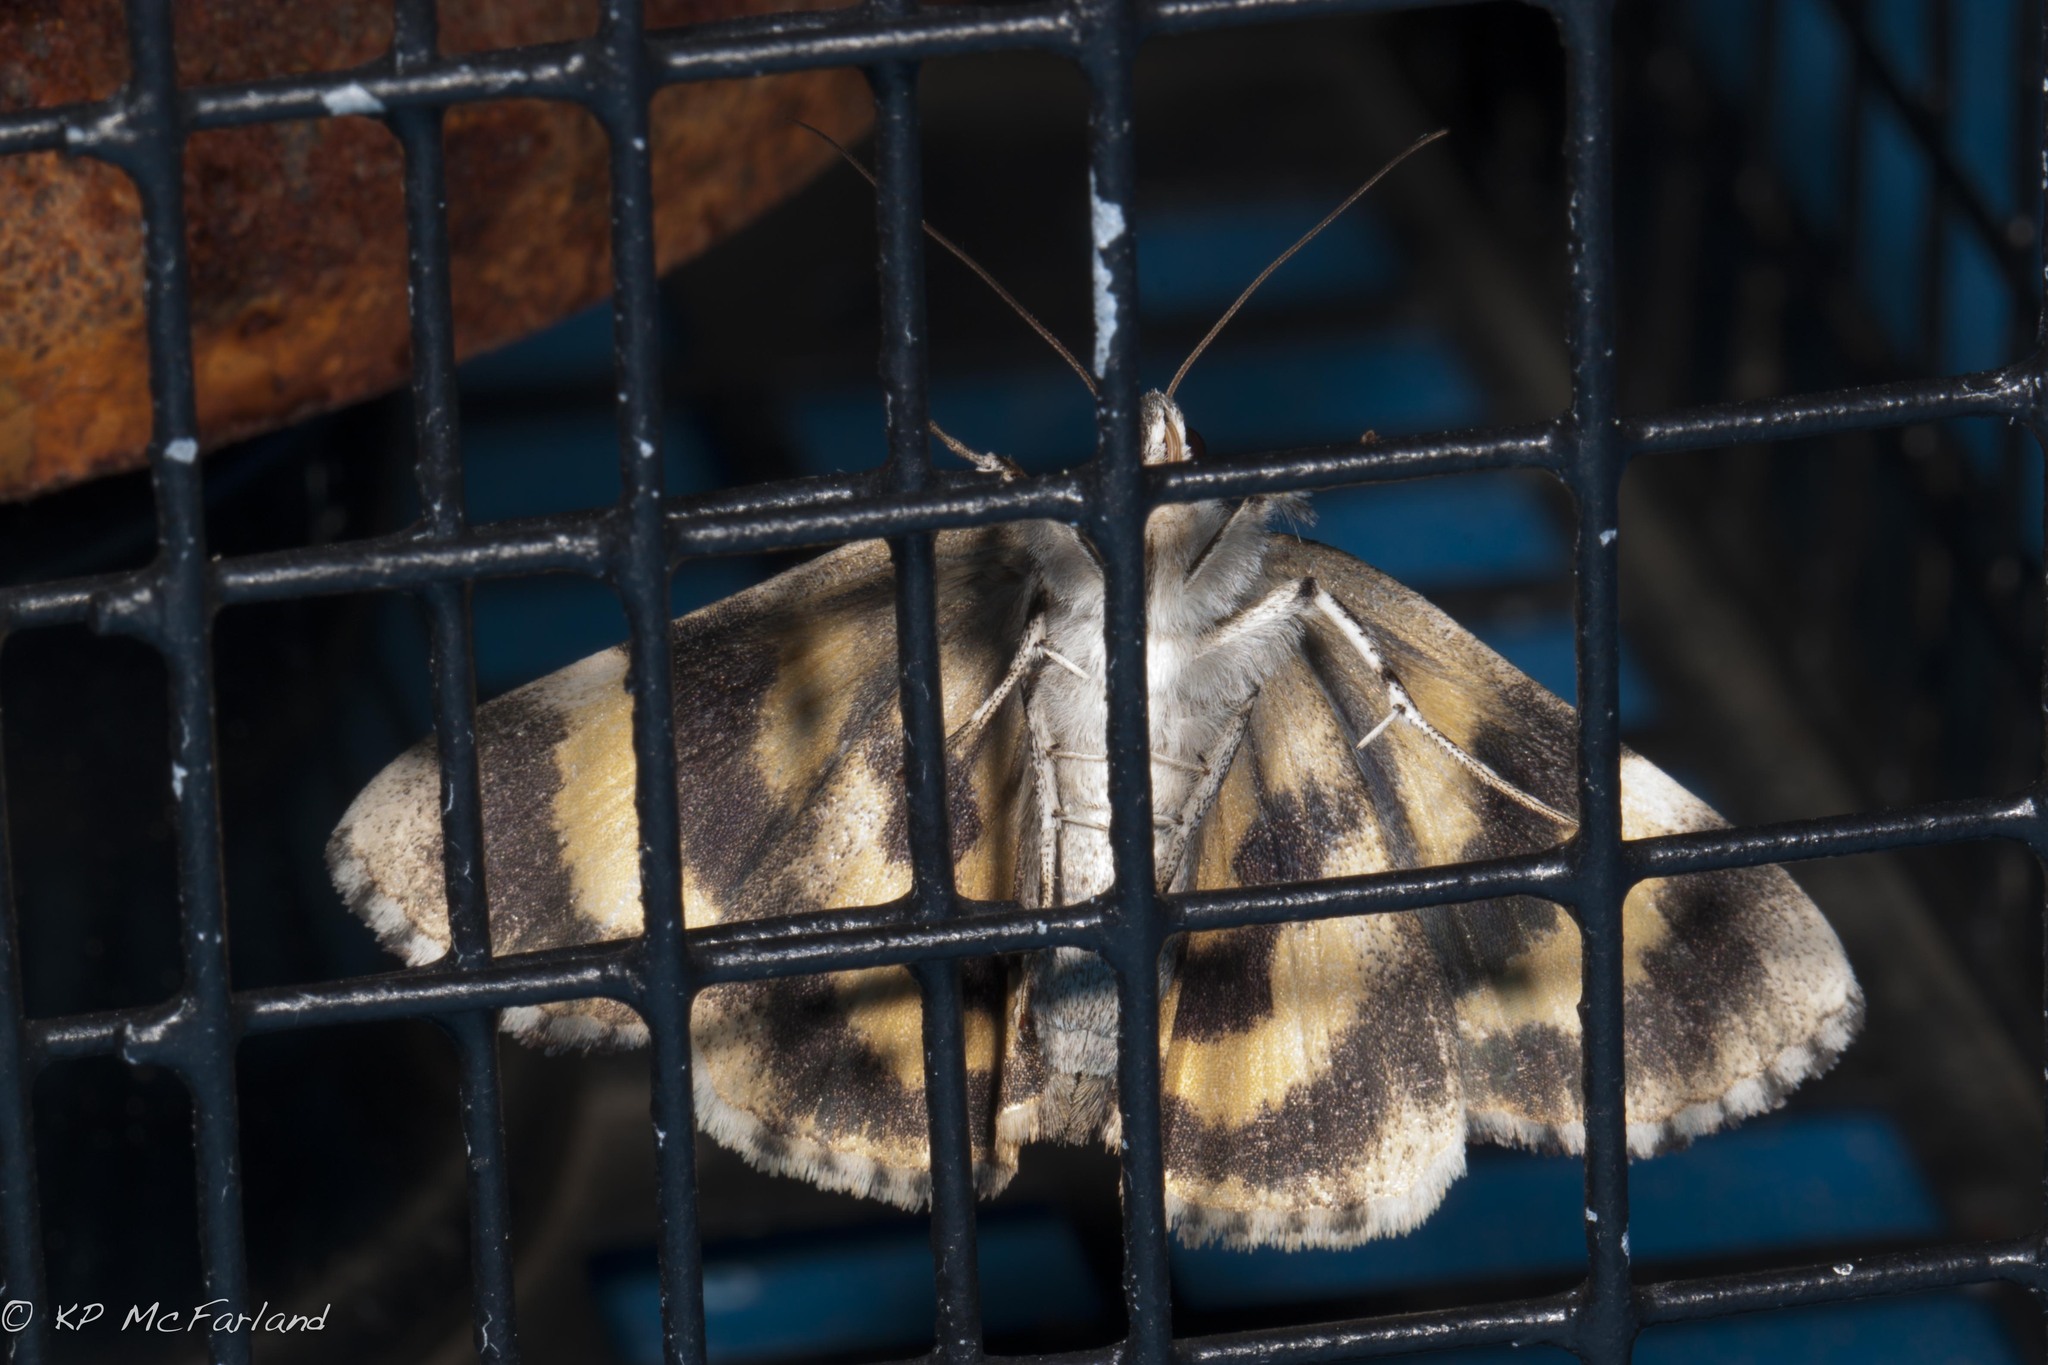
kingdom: Animalia
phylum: Arthropoda
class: Insecta
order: Lepidoptera
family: Erebidae
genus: Catocala
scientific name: Catocala blandula
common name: Charming underwing
